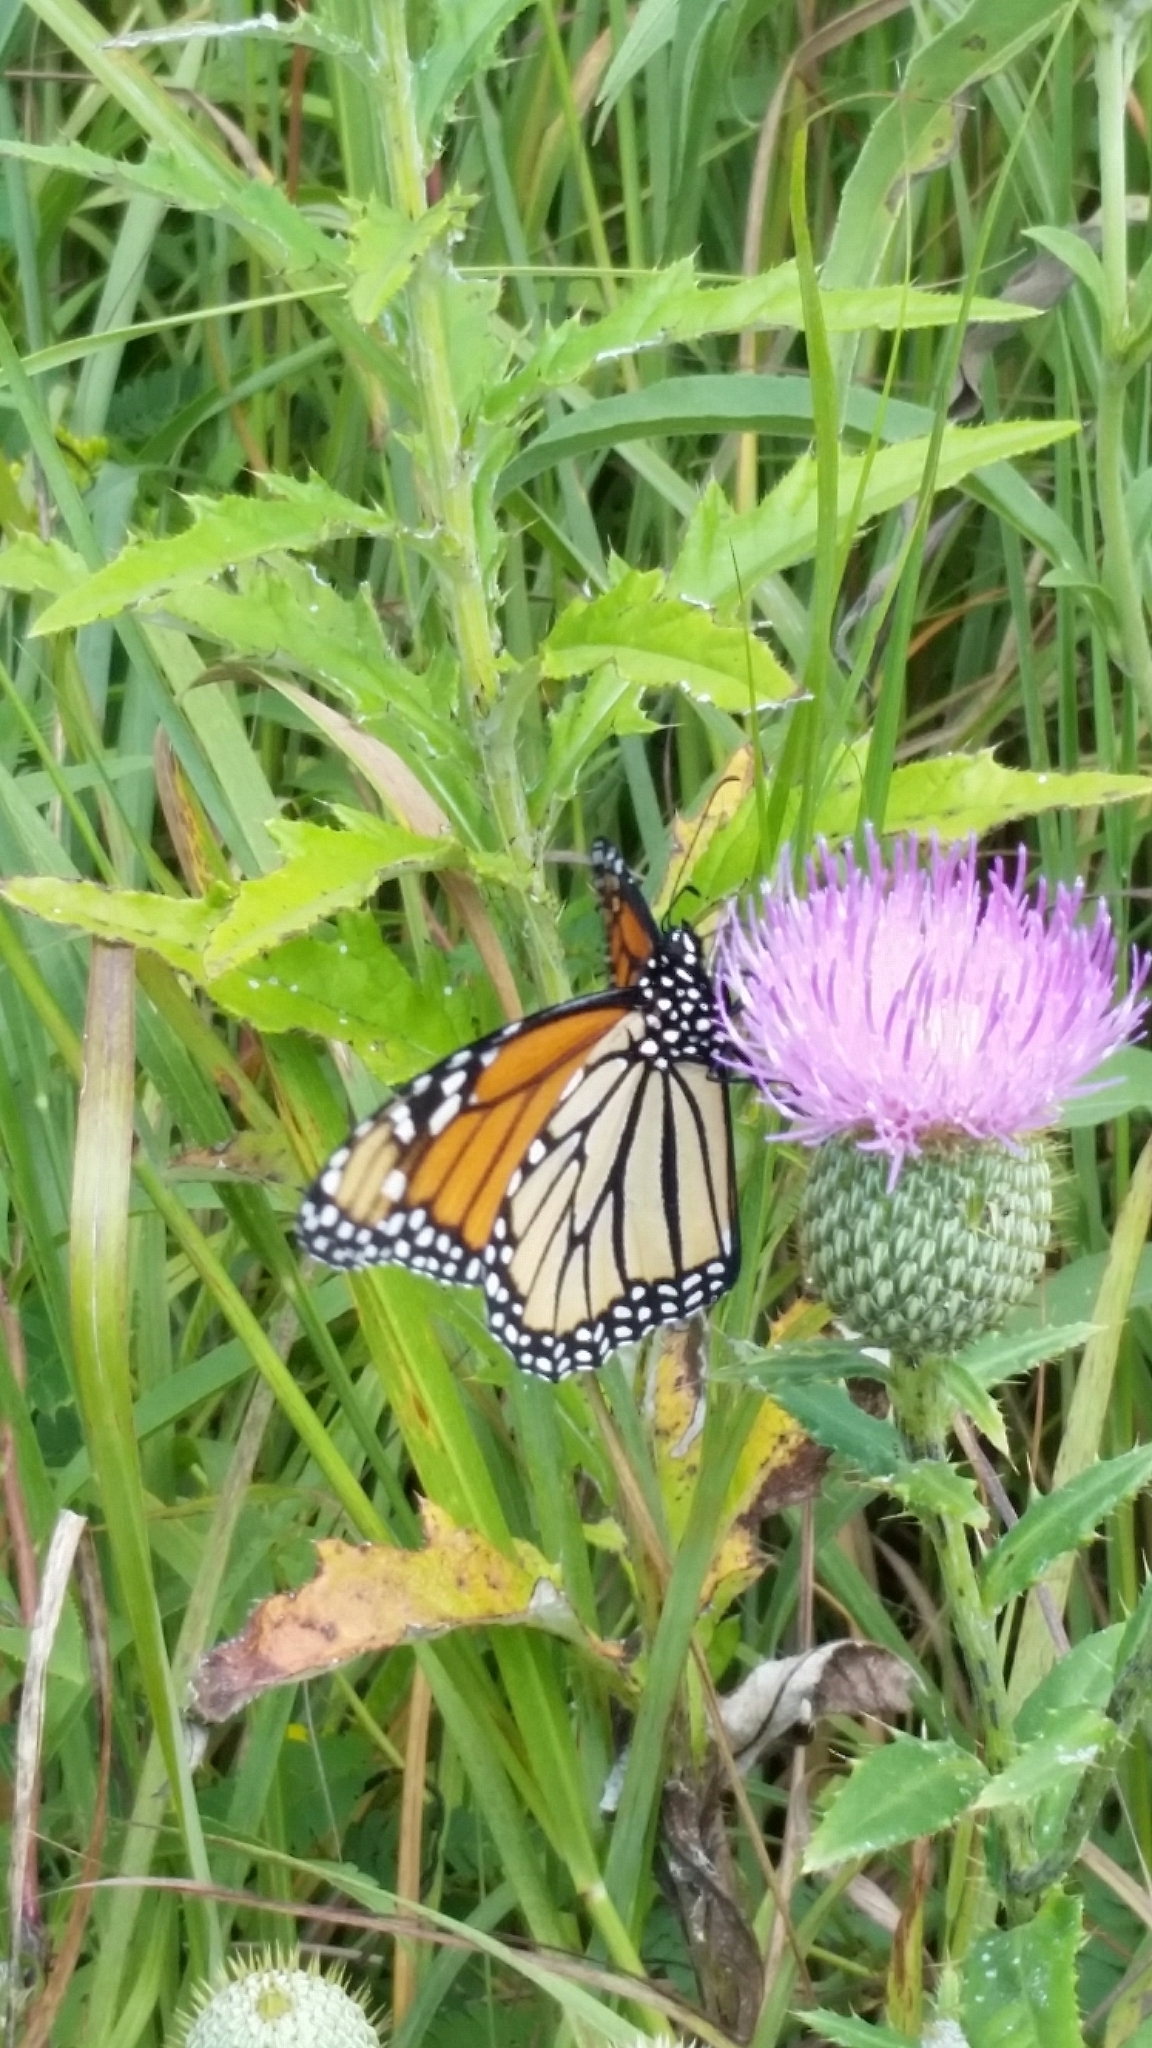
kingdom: Animalia
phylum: Arthropoda
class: Insecta
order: Lepidoptera
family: Nymphalidae
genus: Danaus
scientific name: Danaus plexippus
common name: Monarch
